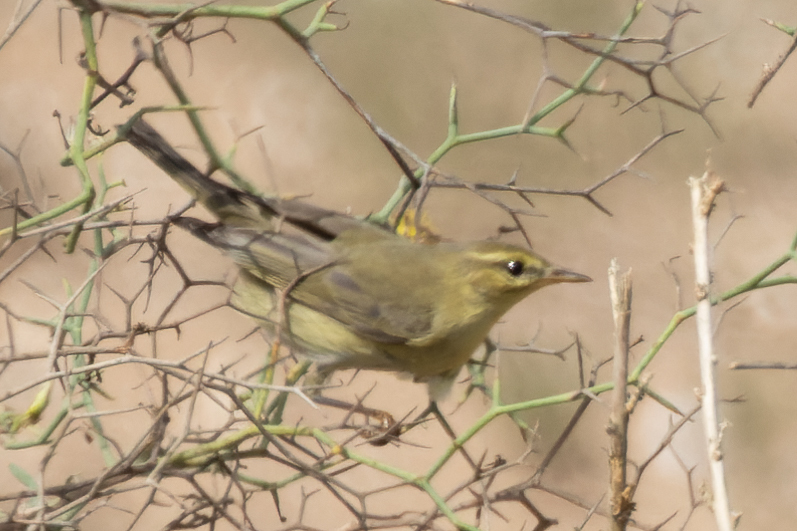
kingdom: Animalia
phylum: Chordata
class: Aves
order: Passeriformes
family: Phylloscopidae
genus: Phylloscopus
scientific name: Phylloscopus trochilus
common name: Willow warbler
